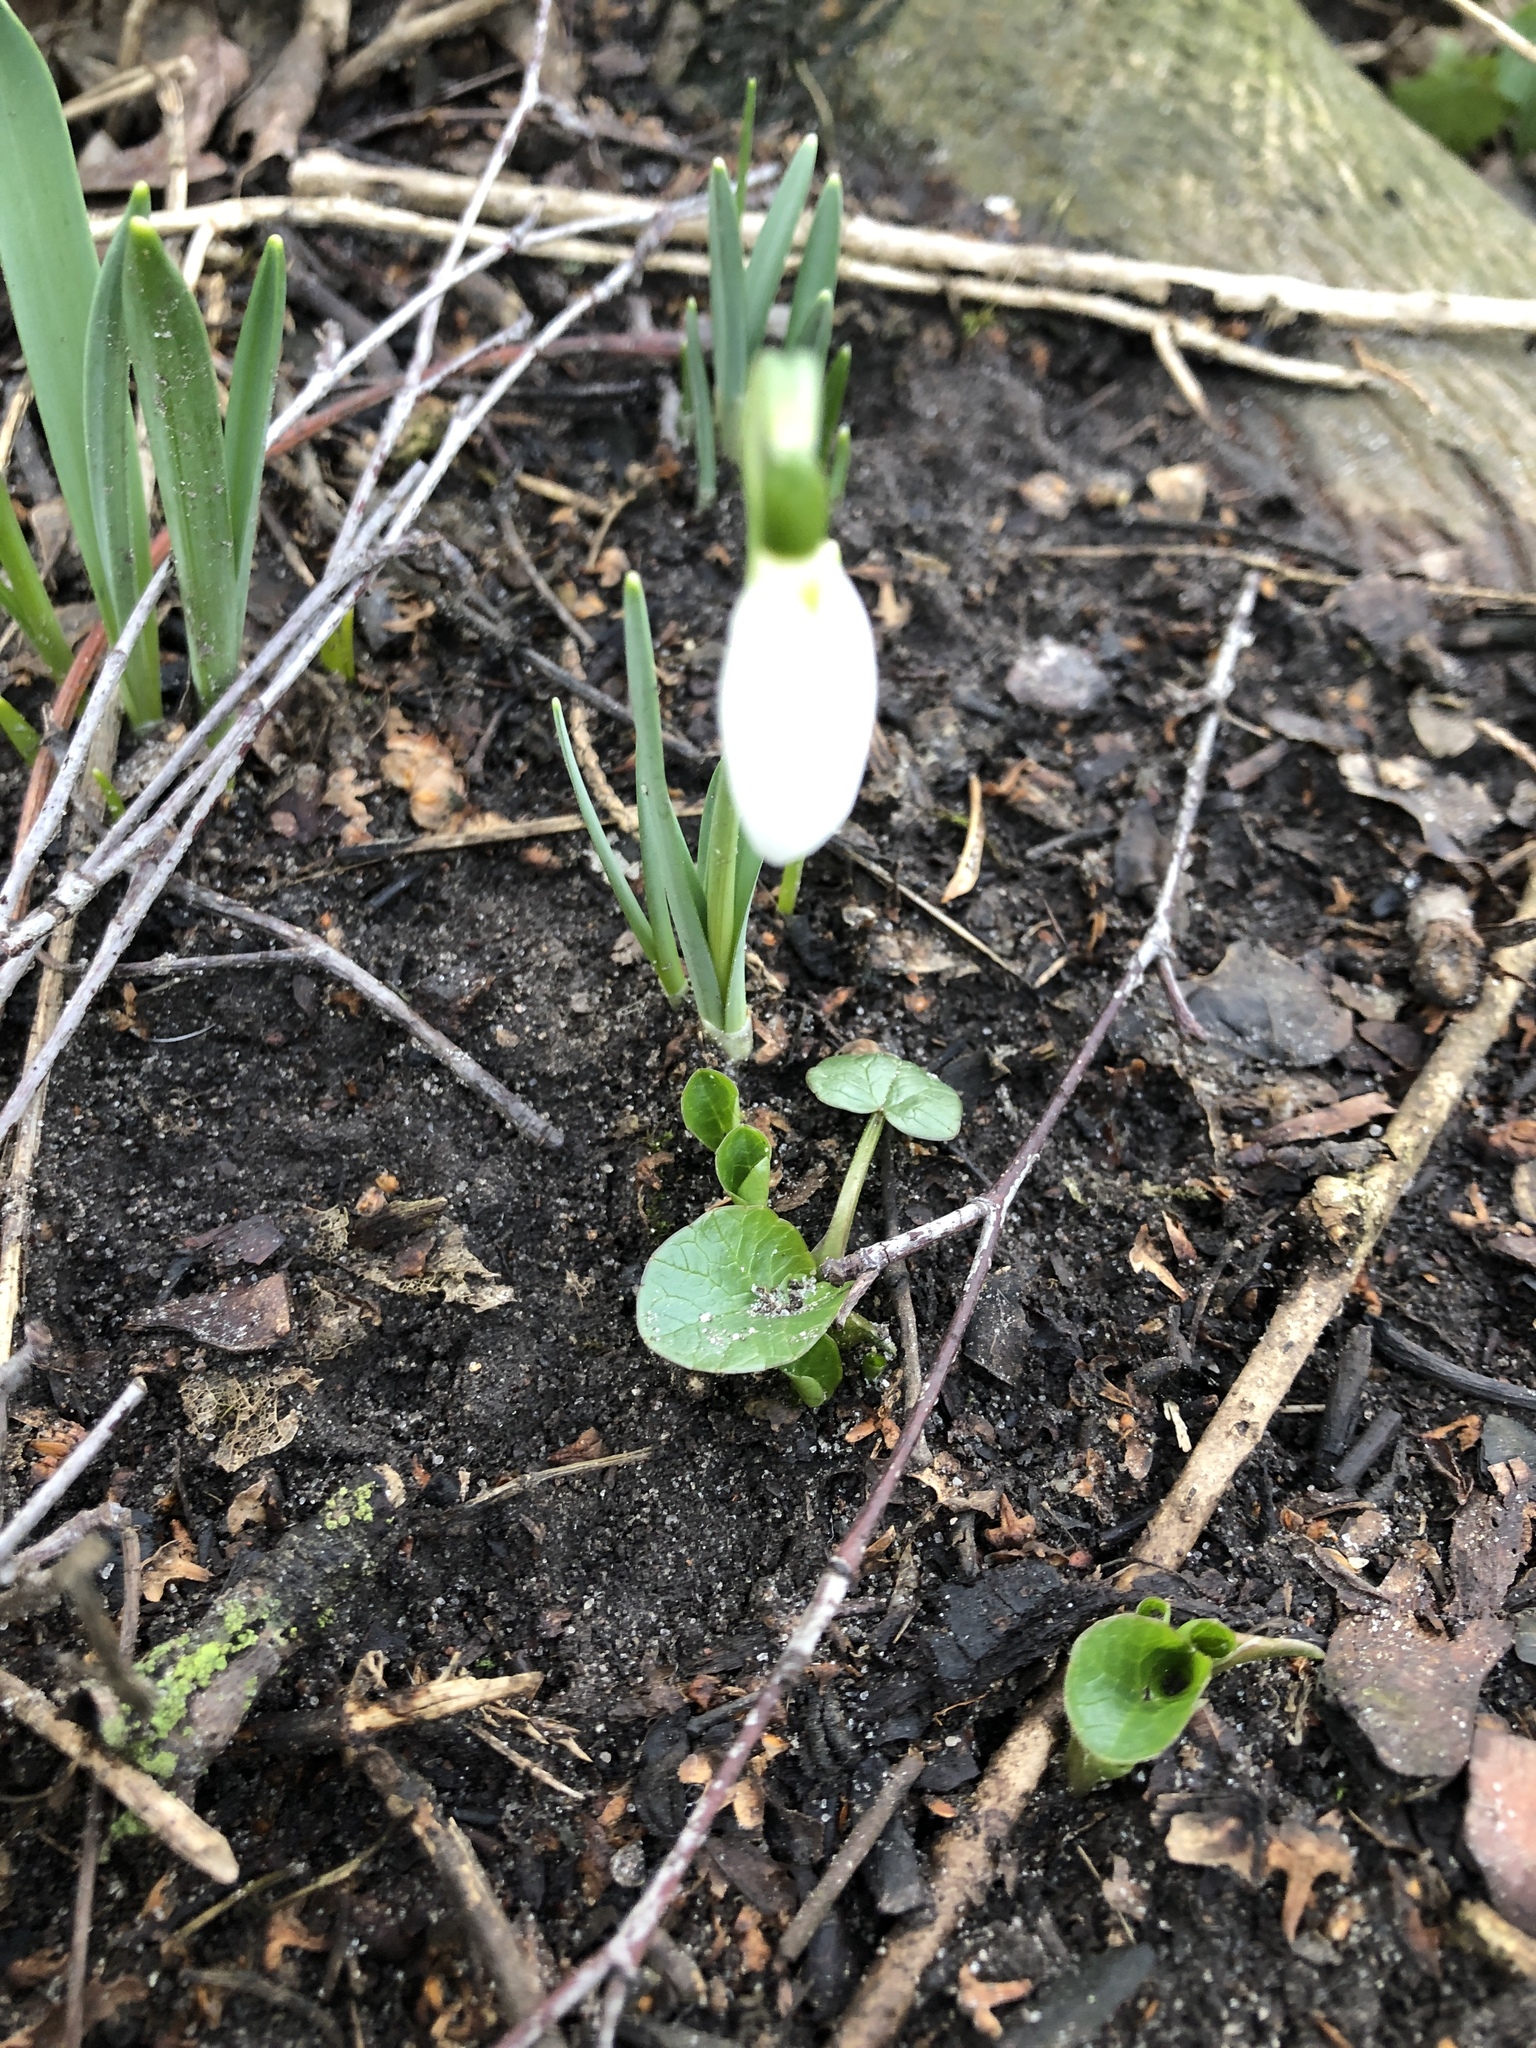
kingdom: Plantae
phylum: Tracheophyta
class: Liliopsida
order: Asparagales
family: Amaryllidaceae
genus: Galanthus
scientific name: Galanthus nivalis
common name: Snowdrop
